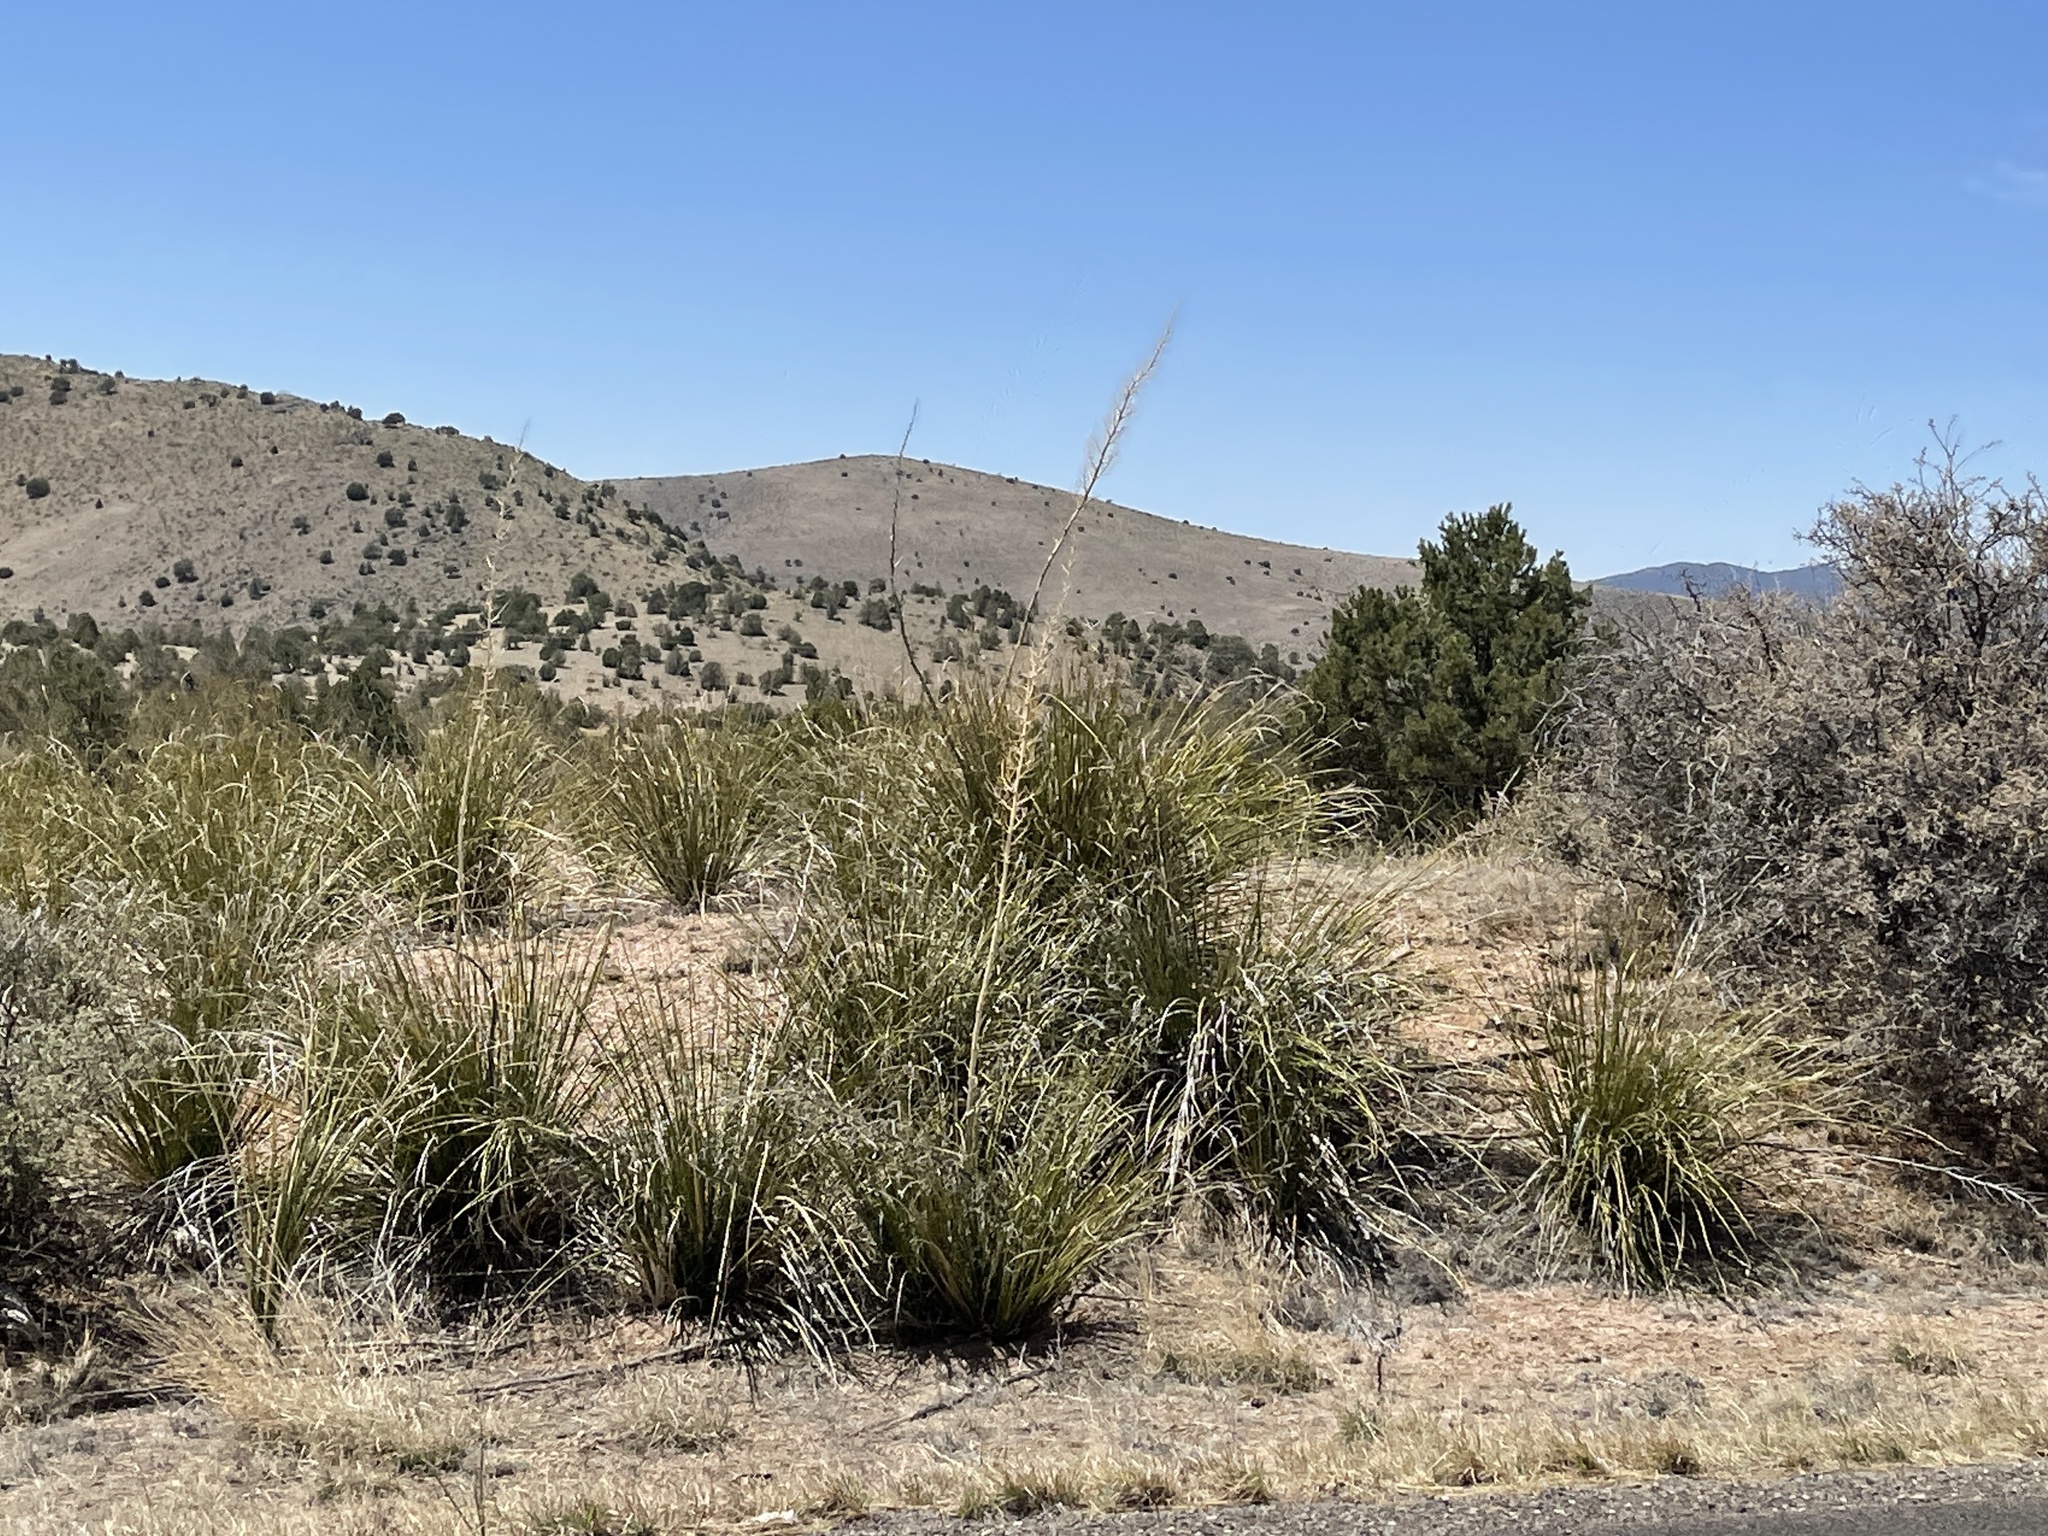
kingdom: Plantae
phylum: Tracheophyta
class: Liliopsida
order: Asparagales
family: Asparagaceae
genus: Nolina
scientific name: Nolina microcarpa
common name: Bear-grass
